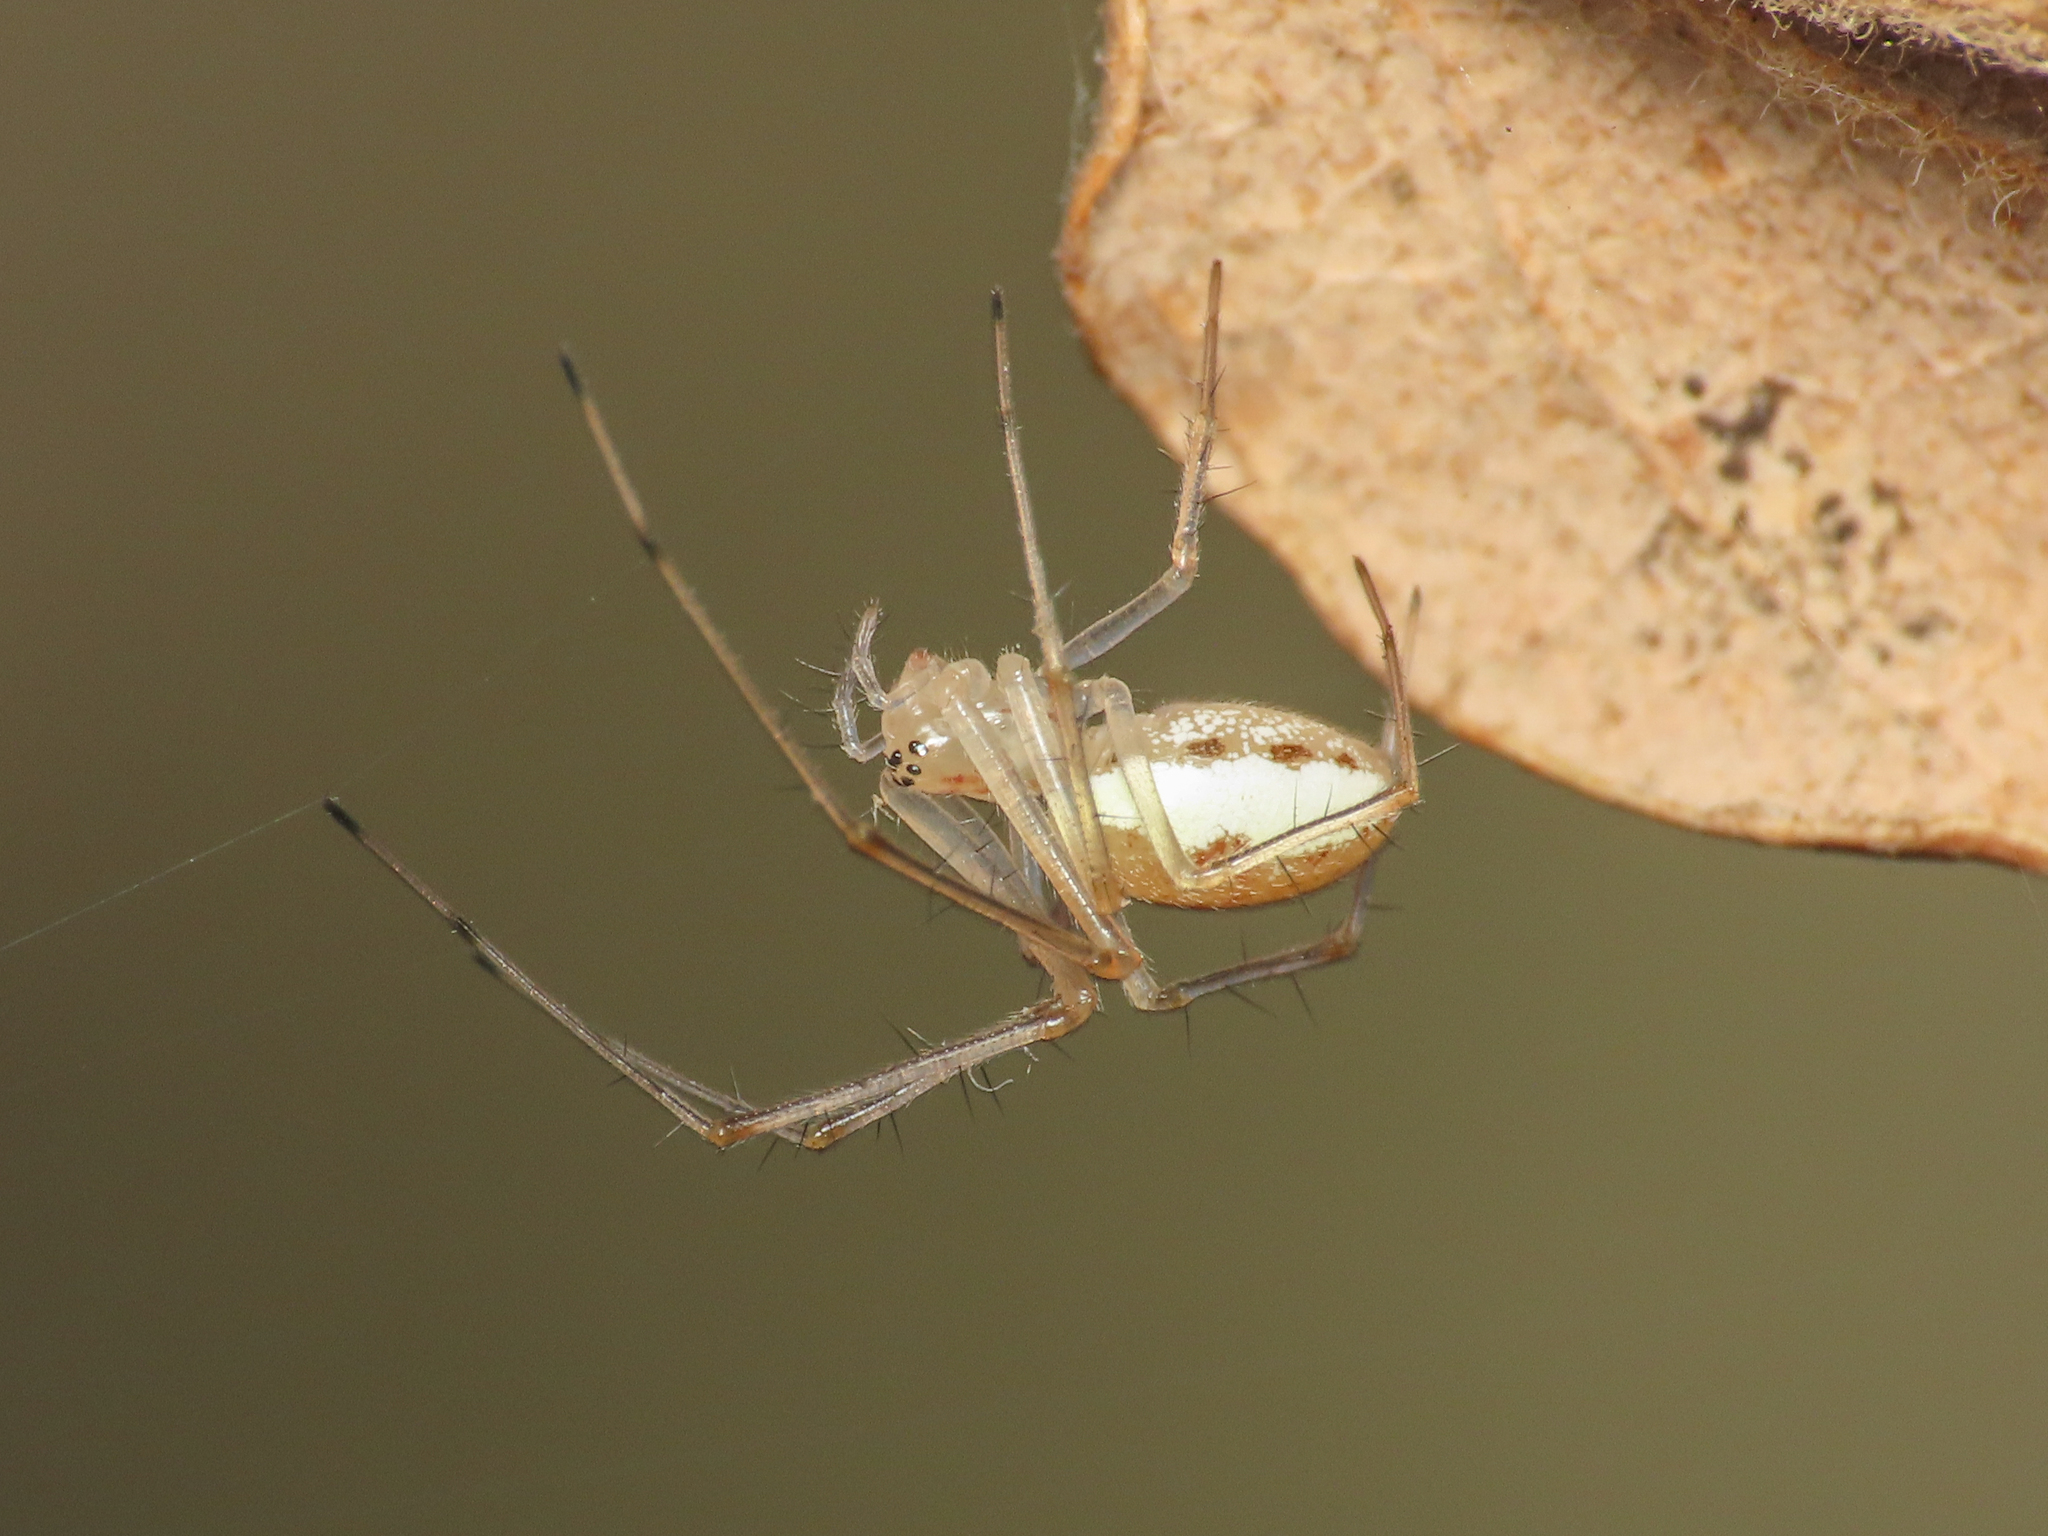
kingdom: Animalia
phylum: Arthropoda
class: Arachnida
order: Araneae
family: Linyphiidae
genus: Linyphia
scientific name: Linyphia mimonti
